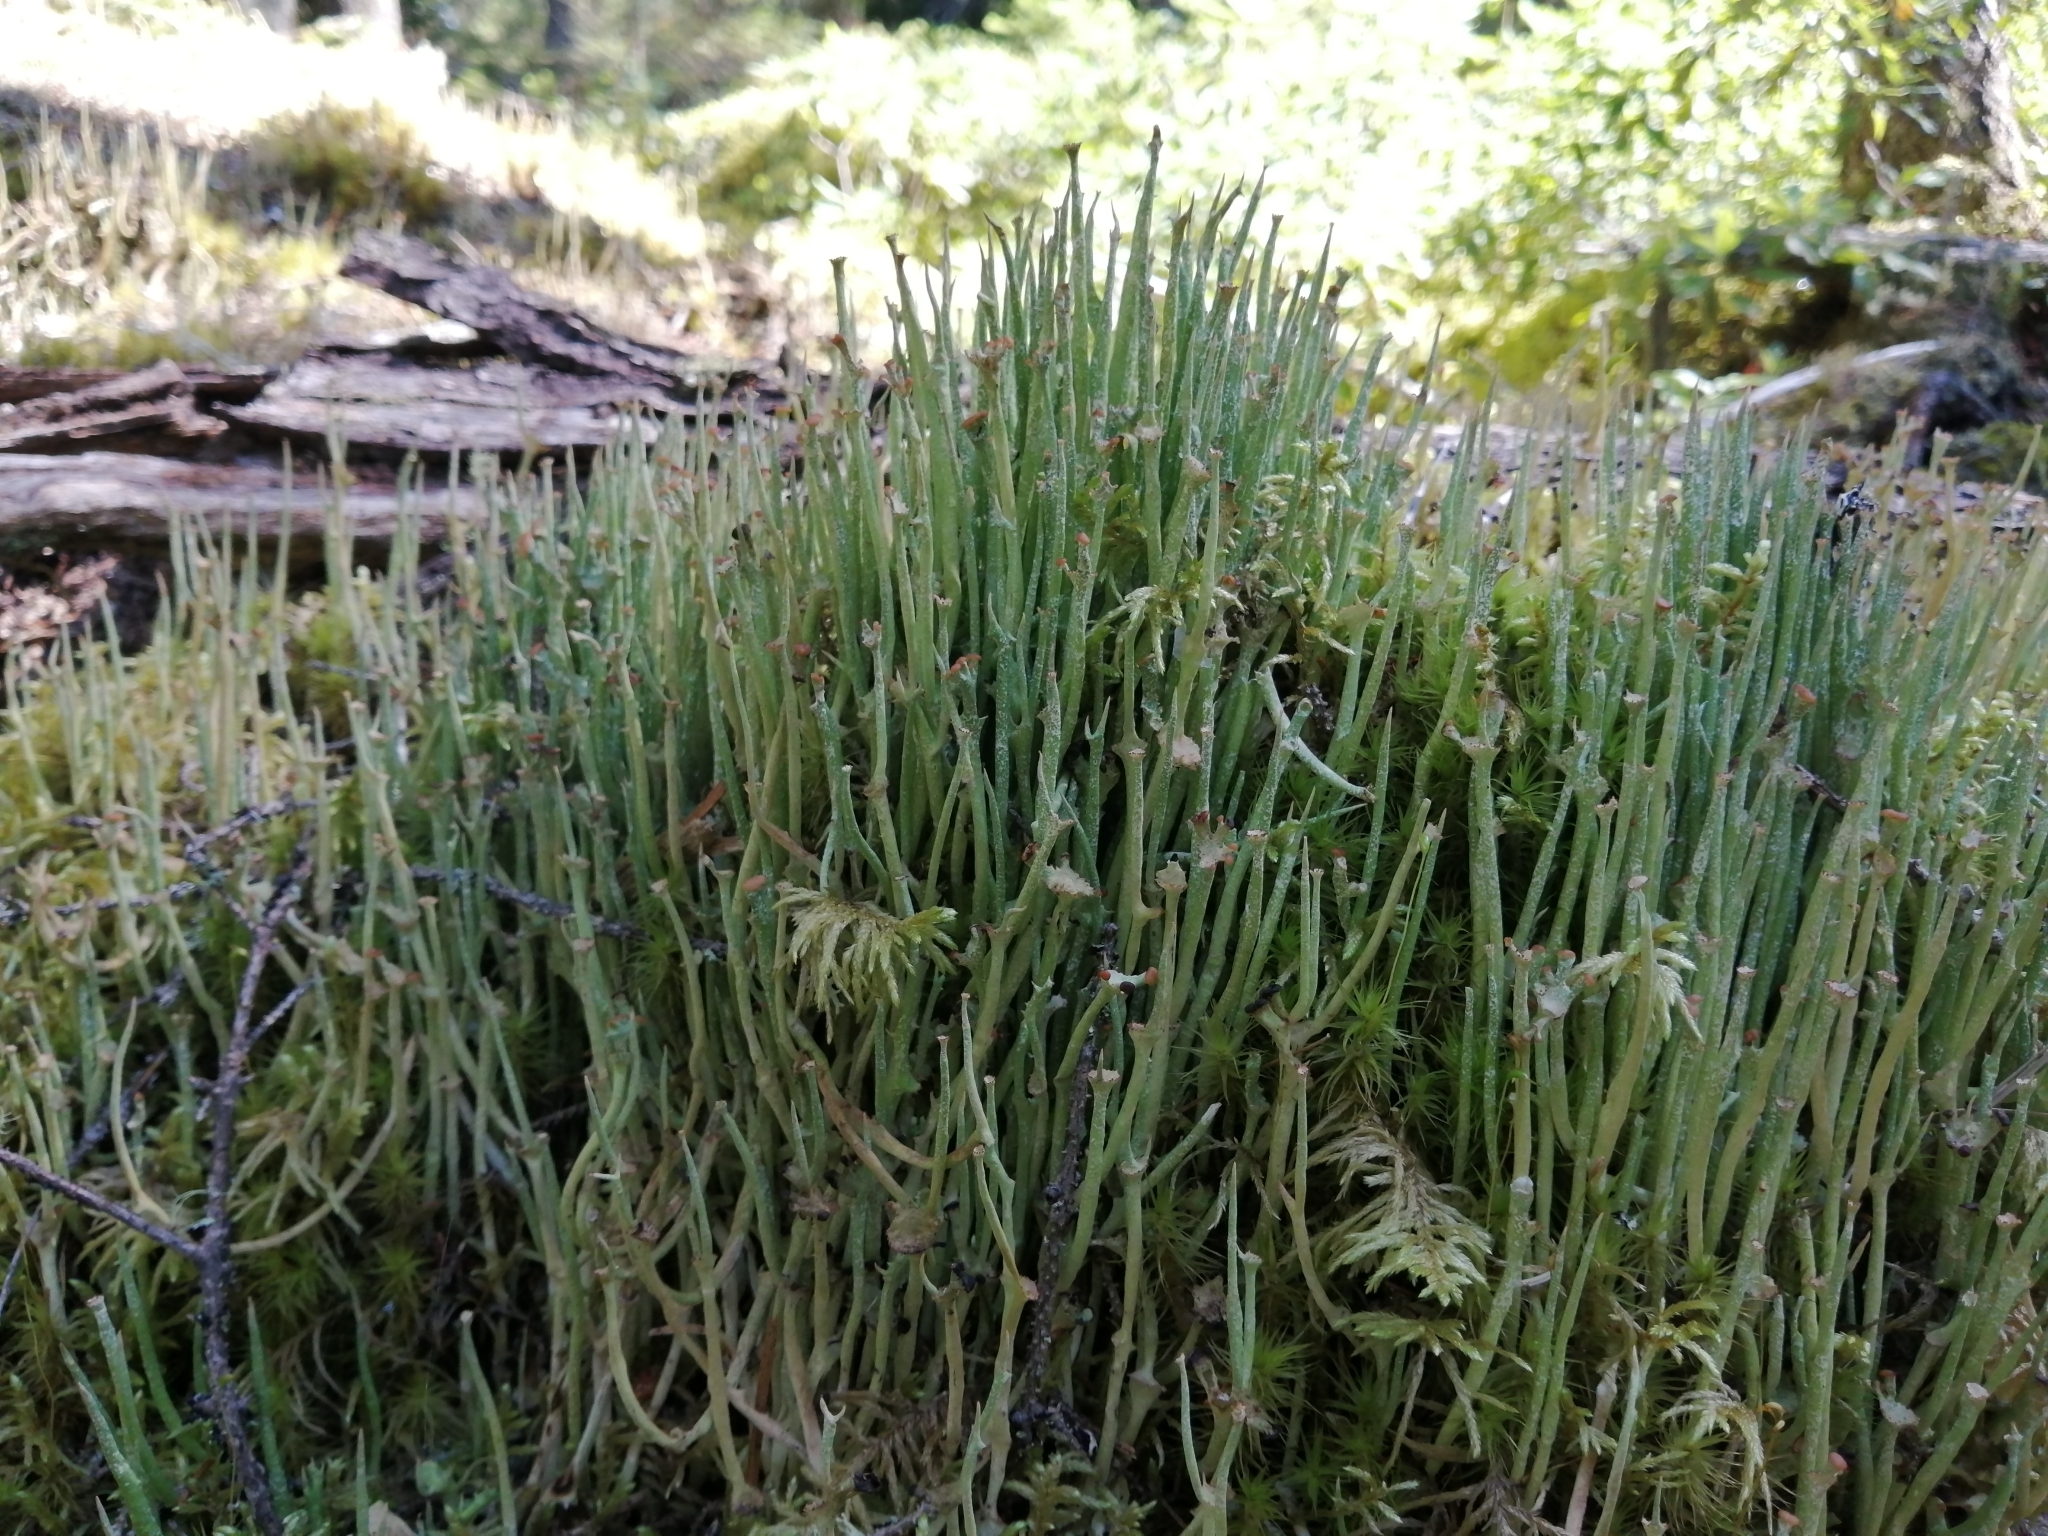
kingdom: Fungi
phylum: Ascomycota
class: Lecanoromycetes
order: Lecanorales
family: Cladoniaceae
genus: Cladonia
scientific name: Cladonia maxima
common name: Giant cladonia lichen
